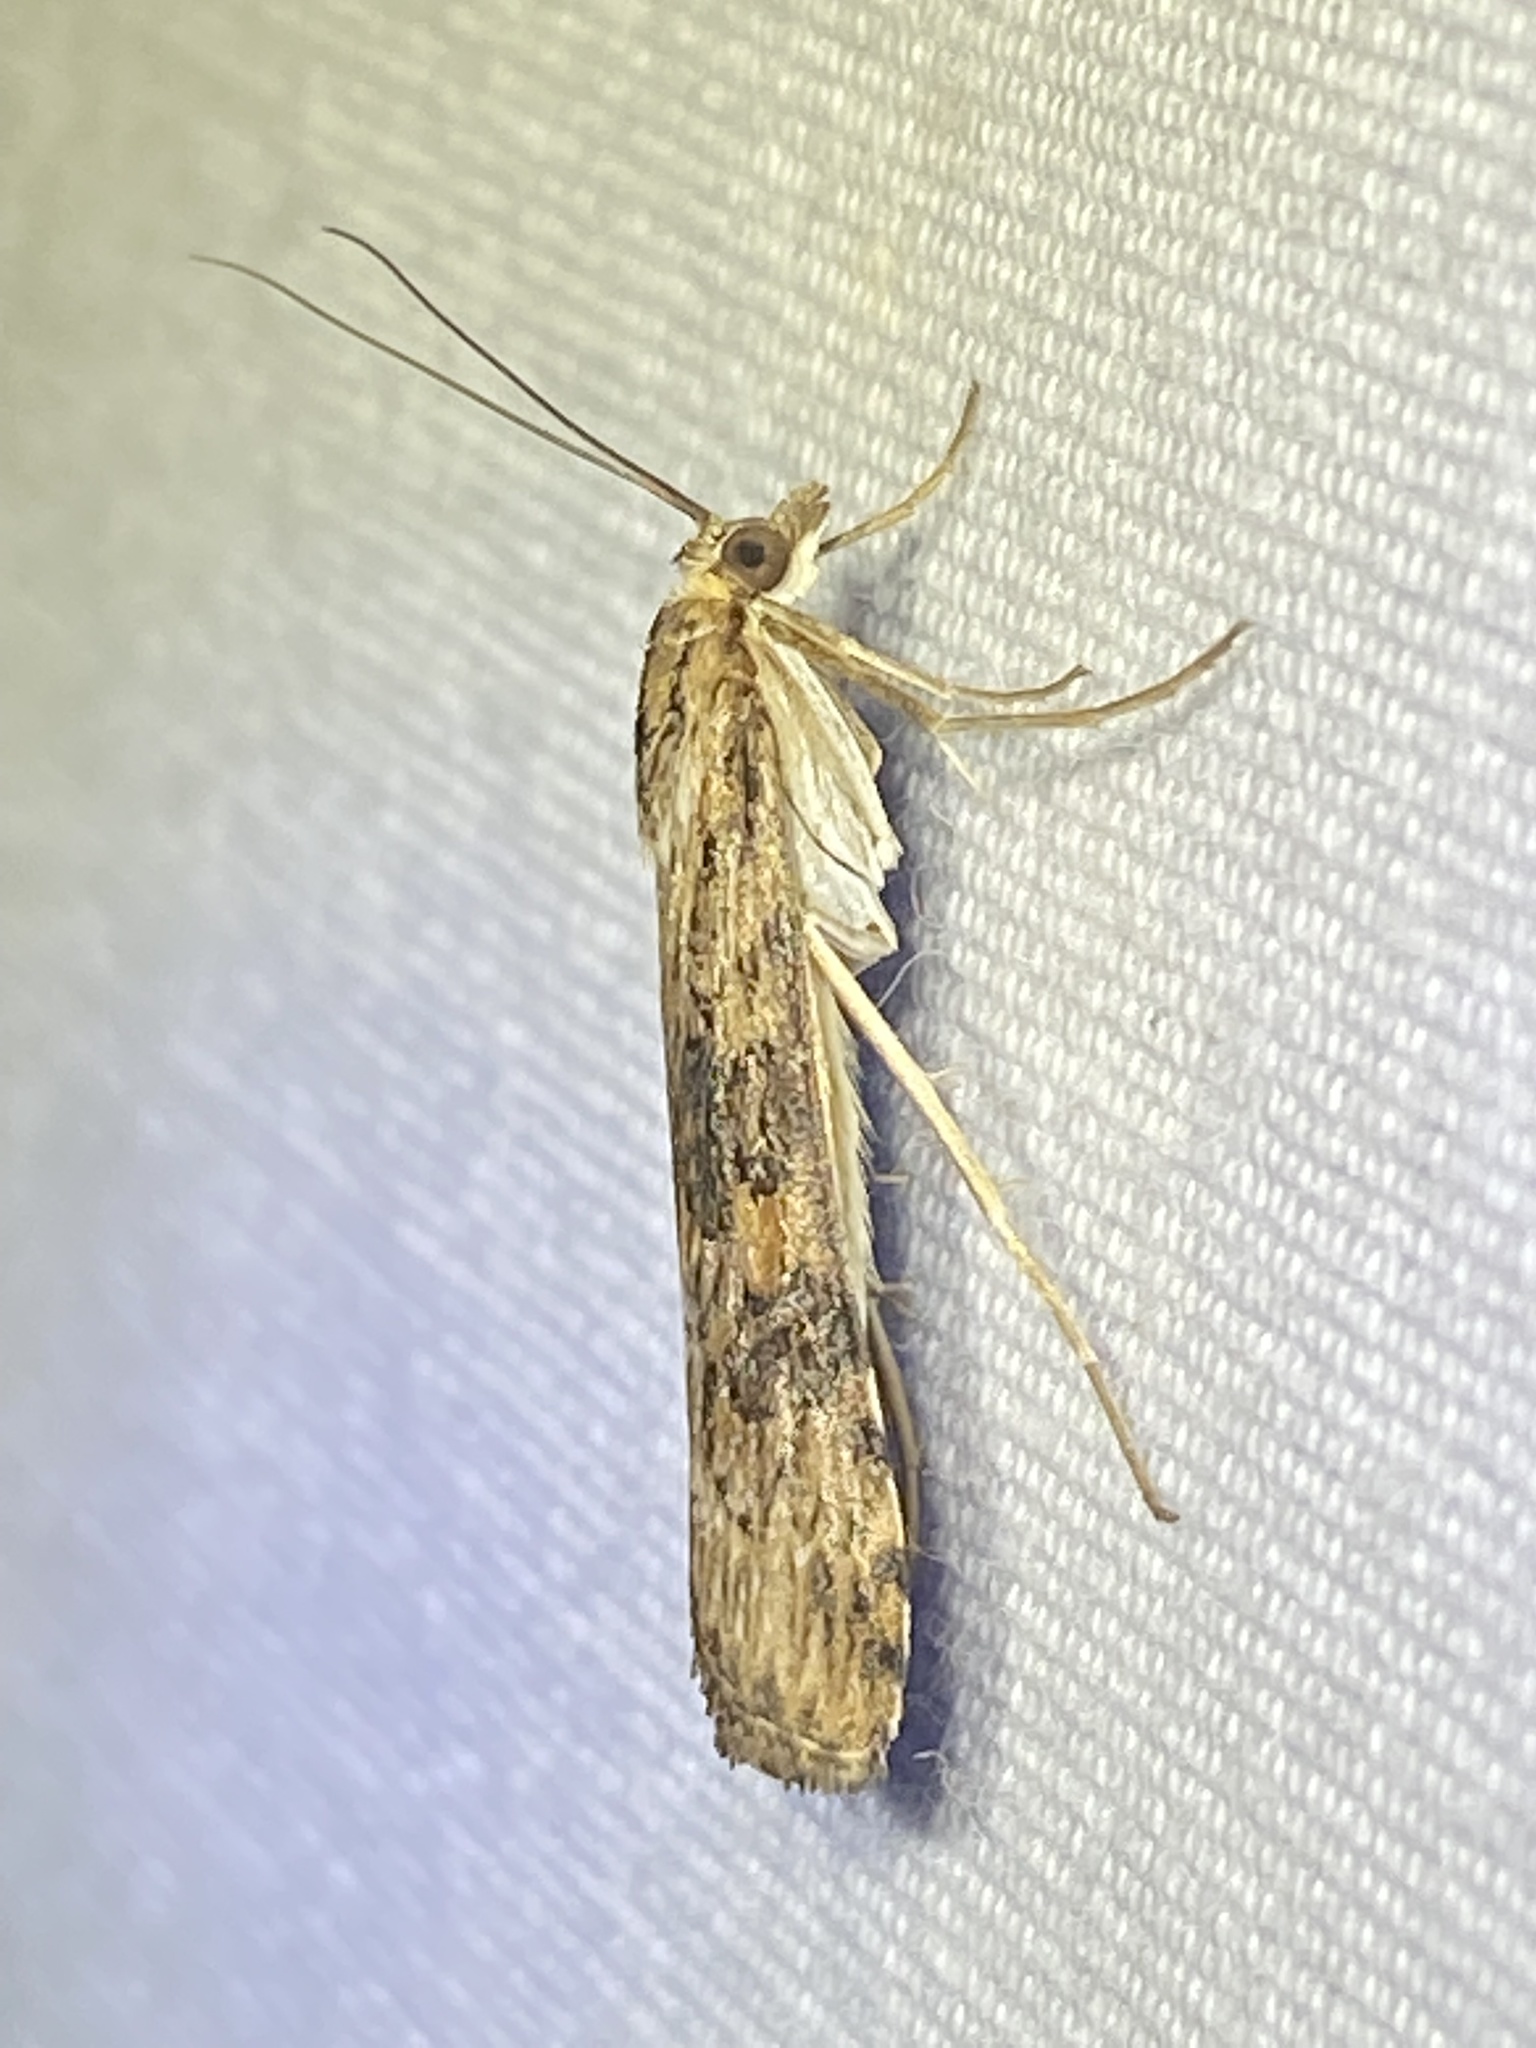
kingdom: Animalia
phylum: Arthropoda
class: Insecta
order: Lepidoptera
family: Crambidae
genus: Nomophila
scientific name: Nomophila nearctica
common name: American rush veneer
